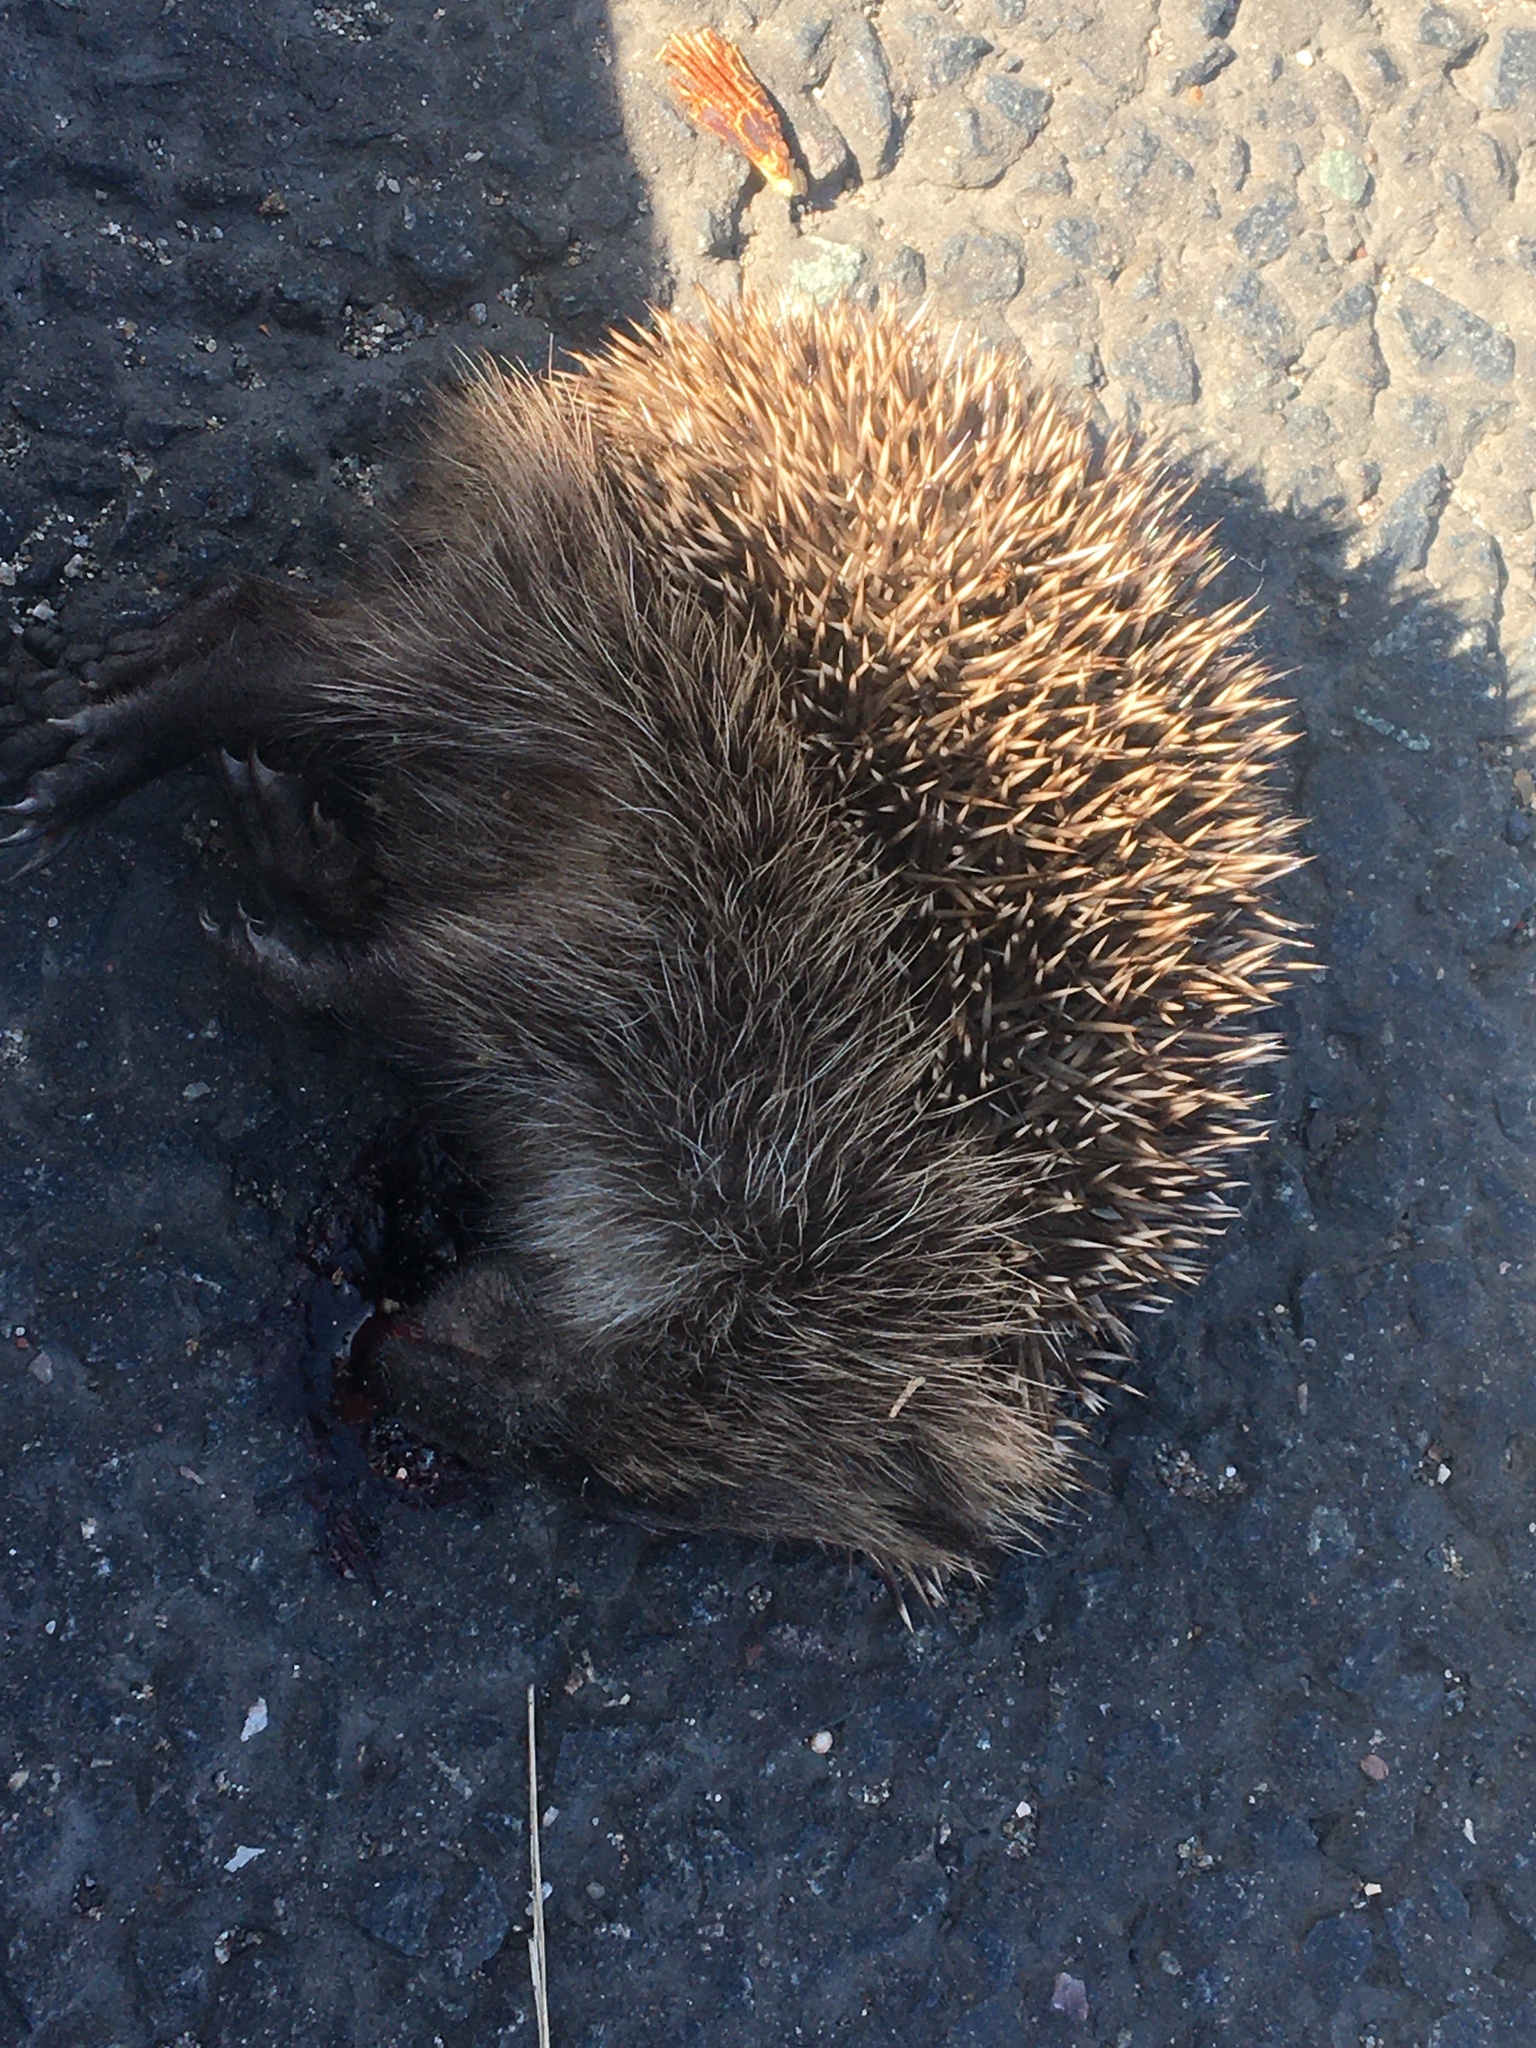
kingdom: Animalia
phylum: Chordata
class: Mammalia
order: Erinaceomorpha
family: Erinaceidae
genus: Erinaceus
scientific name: Erinaceus europaeus
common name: West european hedgehog
